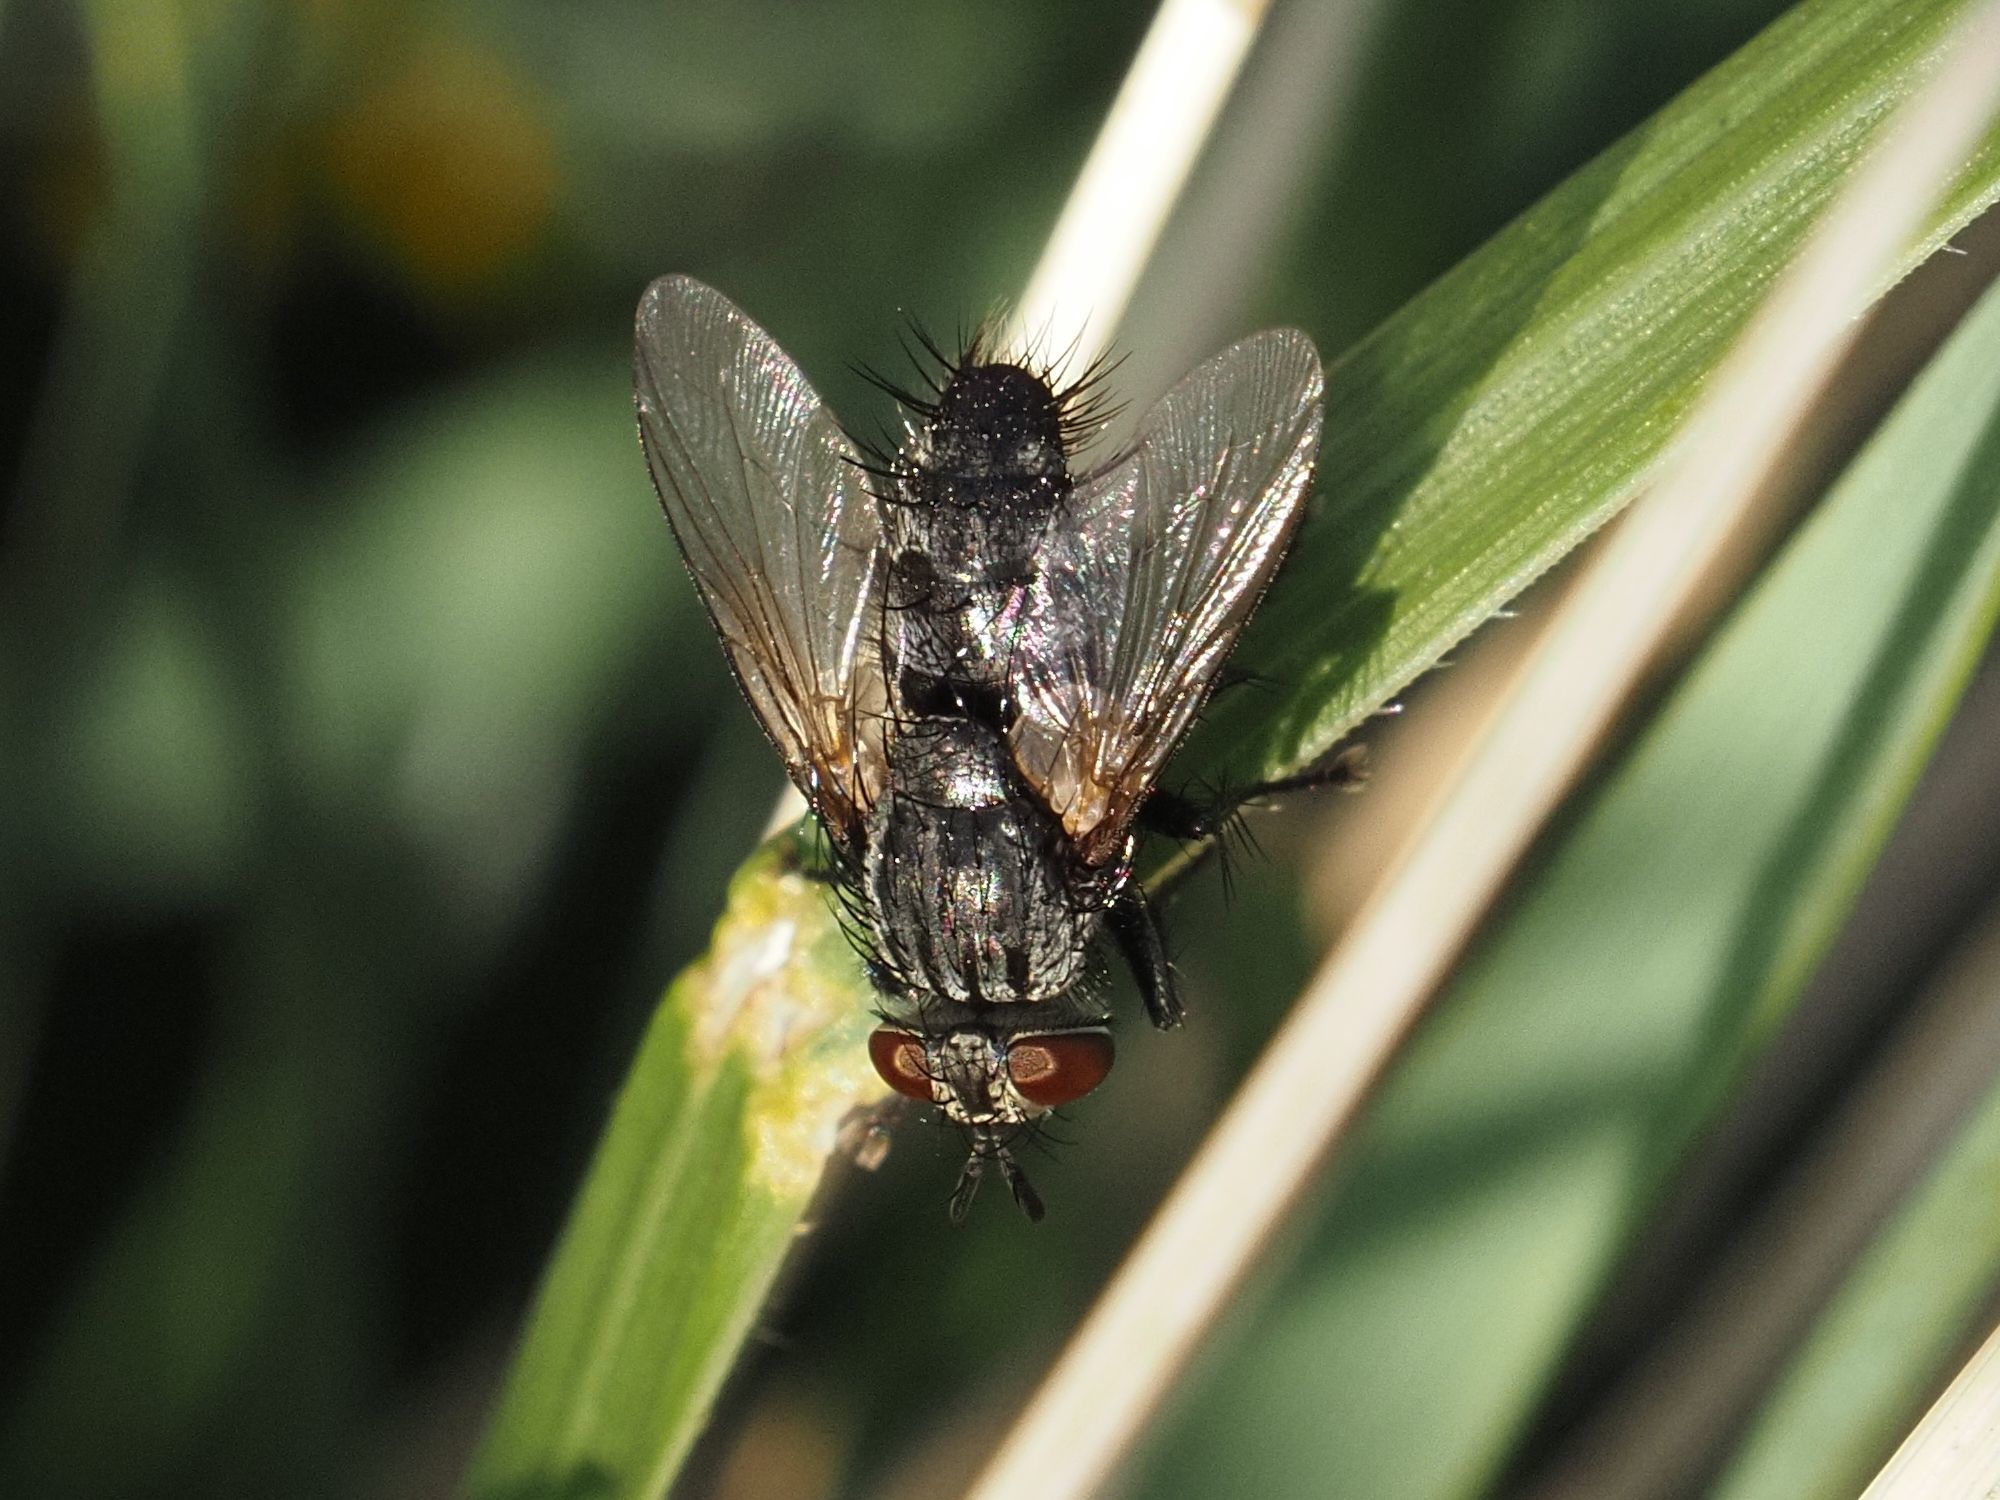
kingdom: Animalia
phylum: Arthropoda
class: Insecta
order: Diptera
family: Tachinidae
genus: Voria
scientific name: Voria ruralis
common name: Parasitic fly
